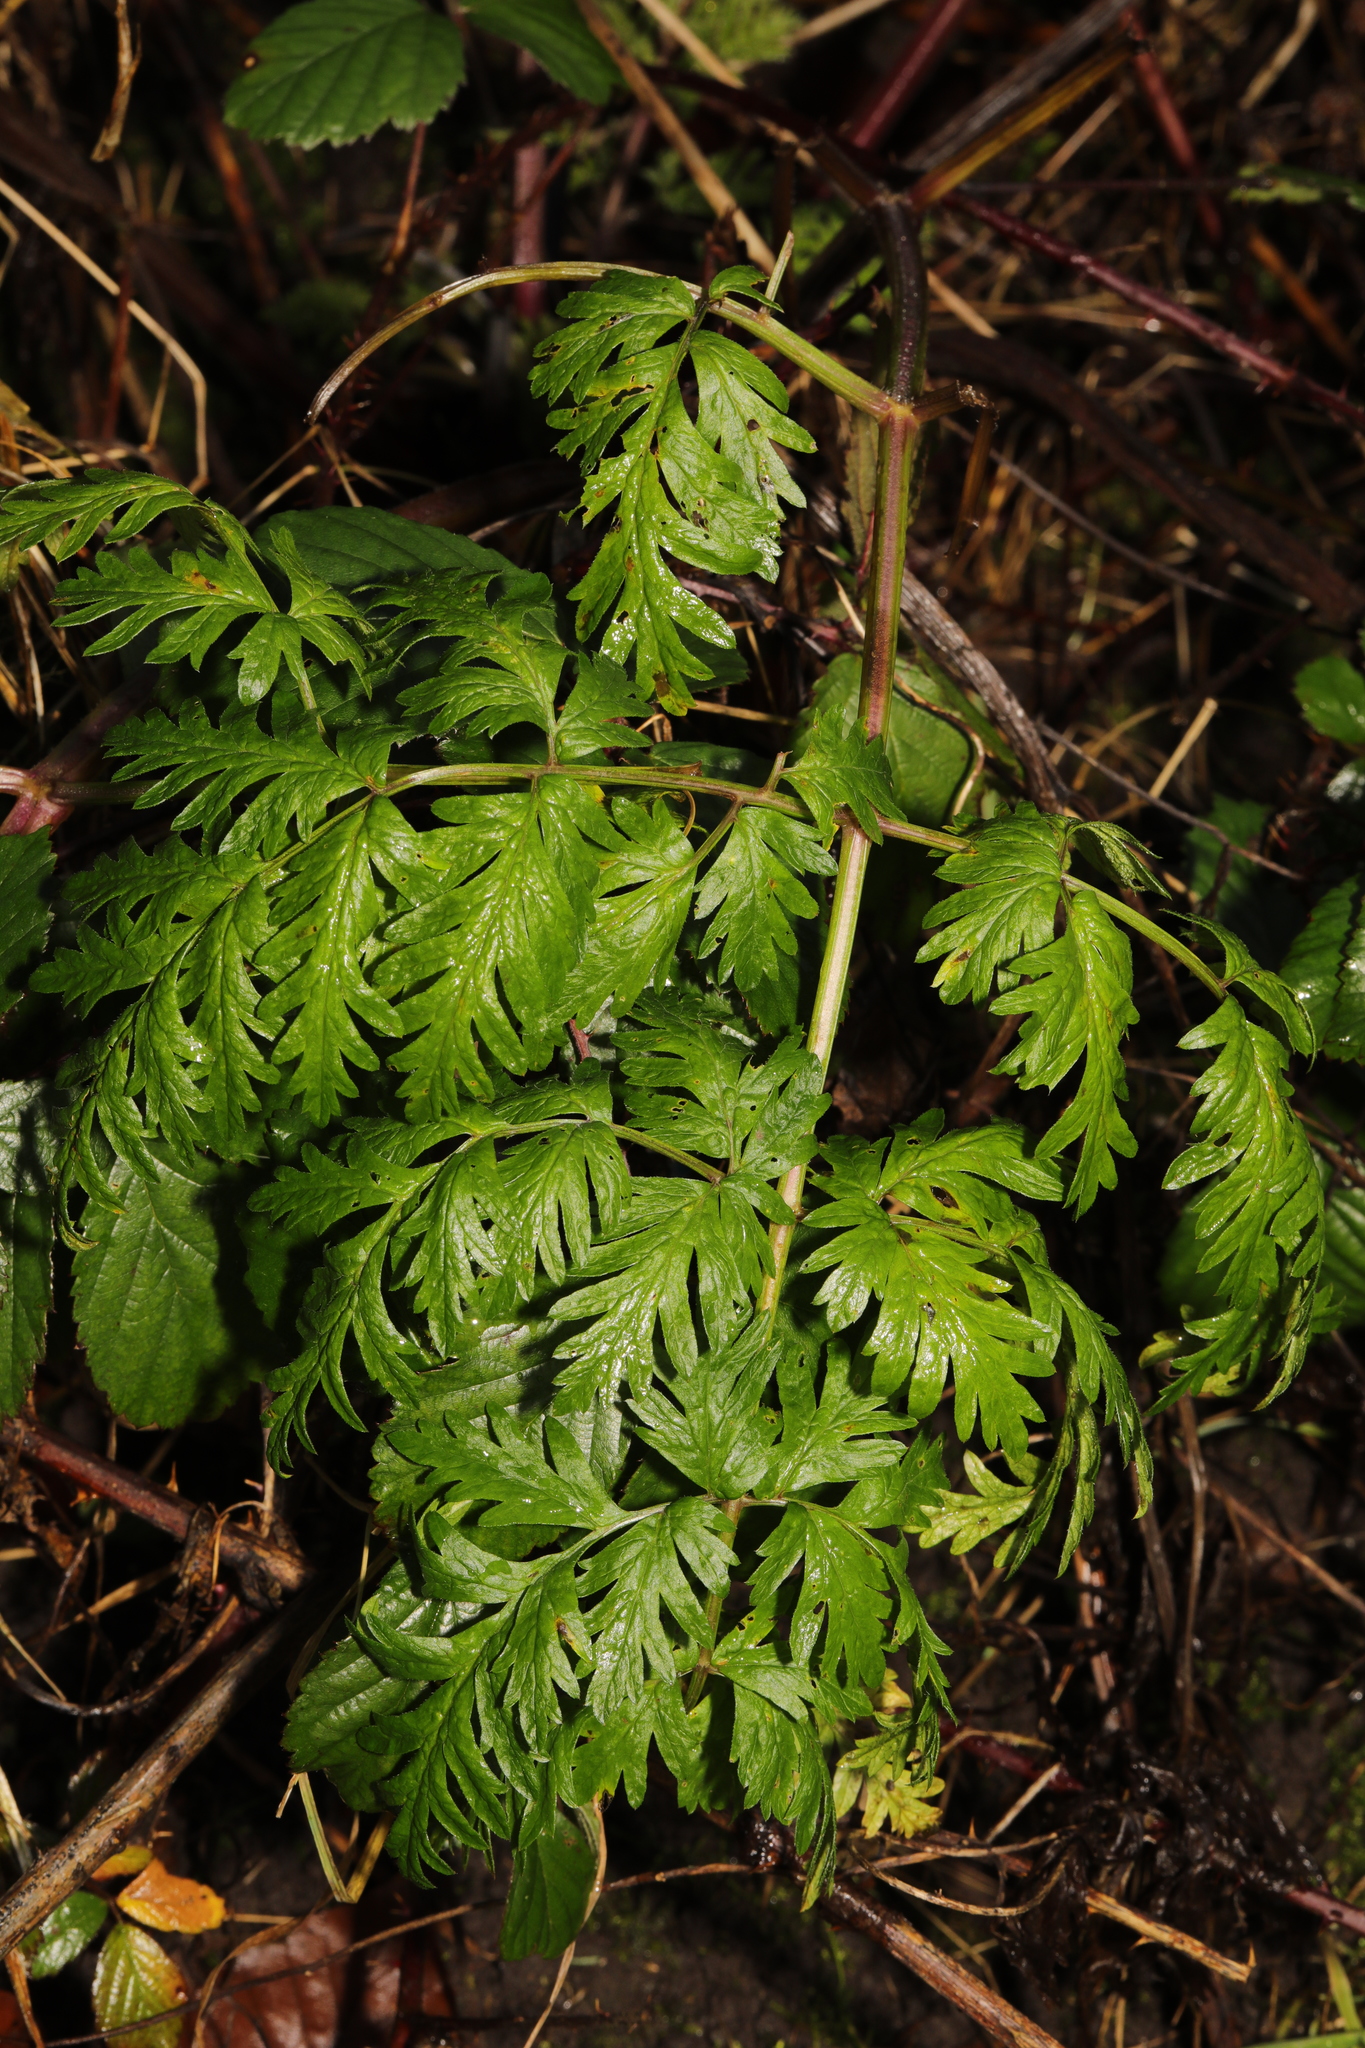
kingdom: Plantae
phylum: Tracheophyta
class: Magnoliopsida
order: Apiales
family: Apiaceae
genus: Anthriscus
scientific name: Anthriscus sylvestris
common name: Cow parsley
